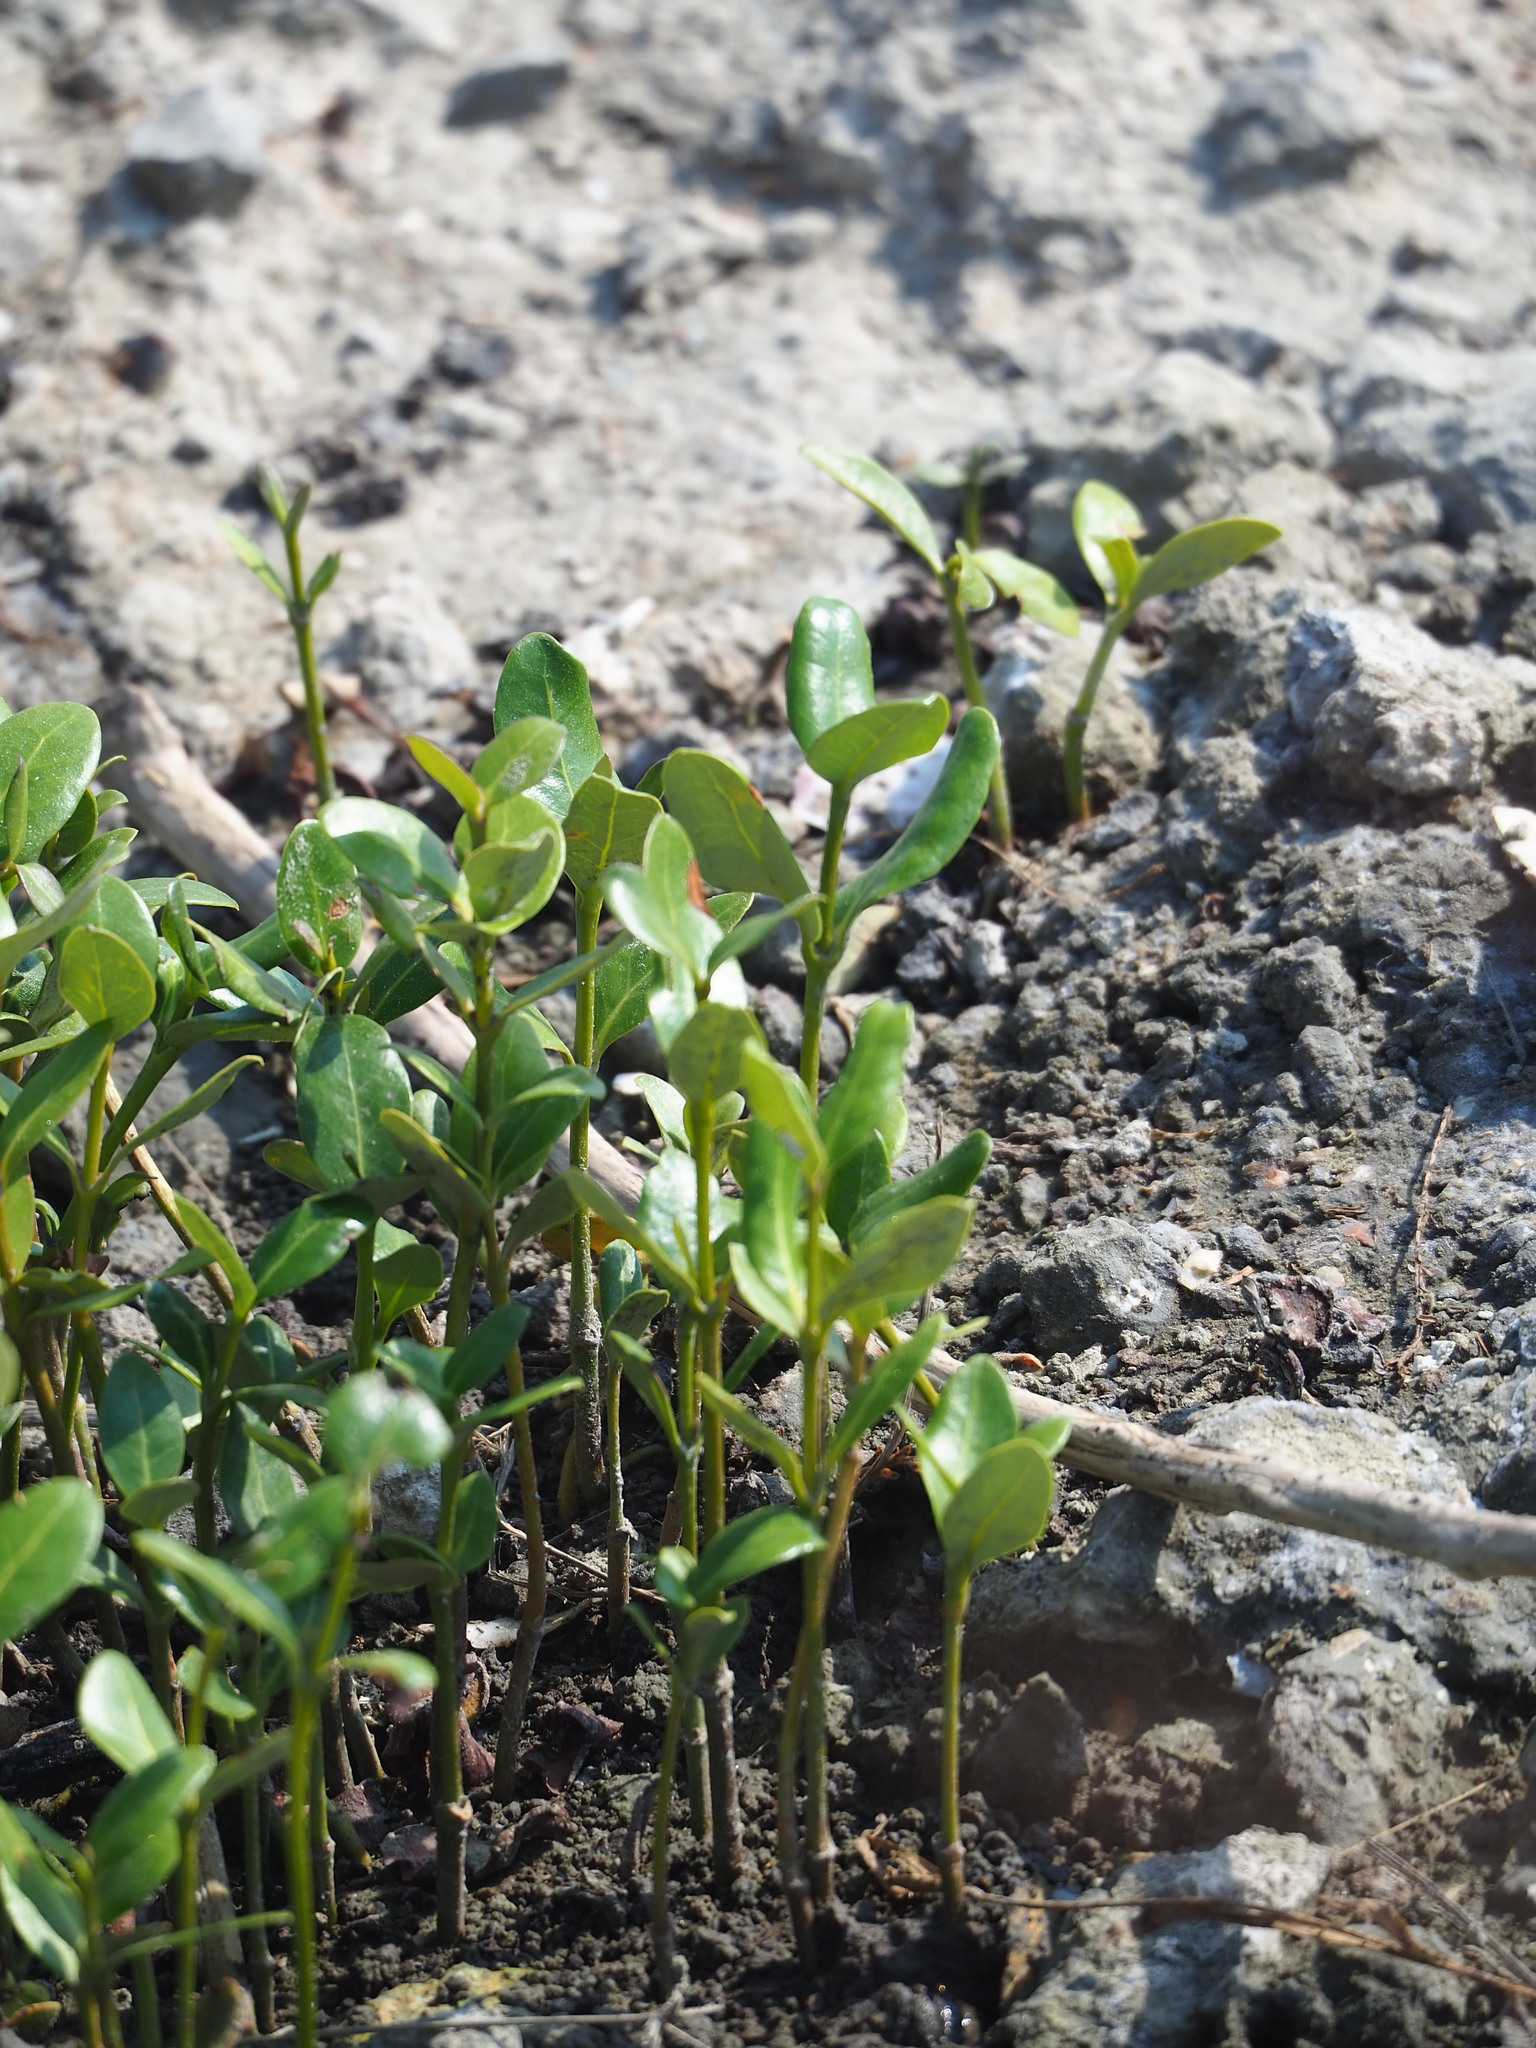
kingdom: Plantae
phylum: Tracheophyta
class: Magnoliopsida
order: Lamiales
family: Acanthaceae
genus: Avicennia
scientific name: Avicennia marina
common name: Gray mangrove
